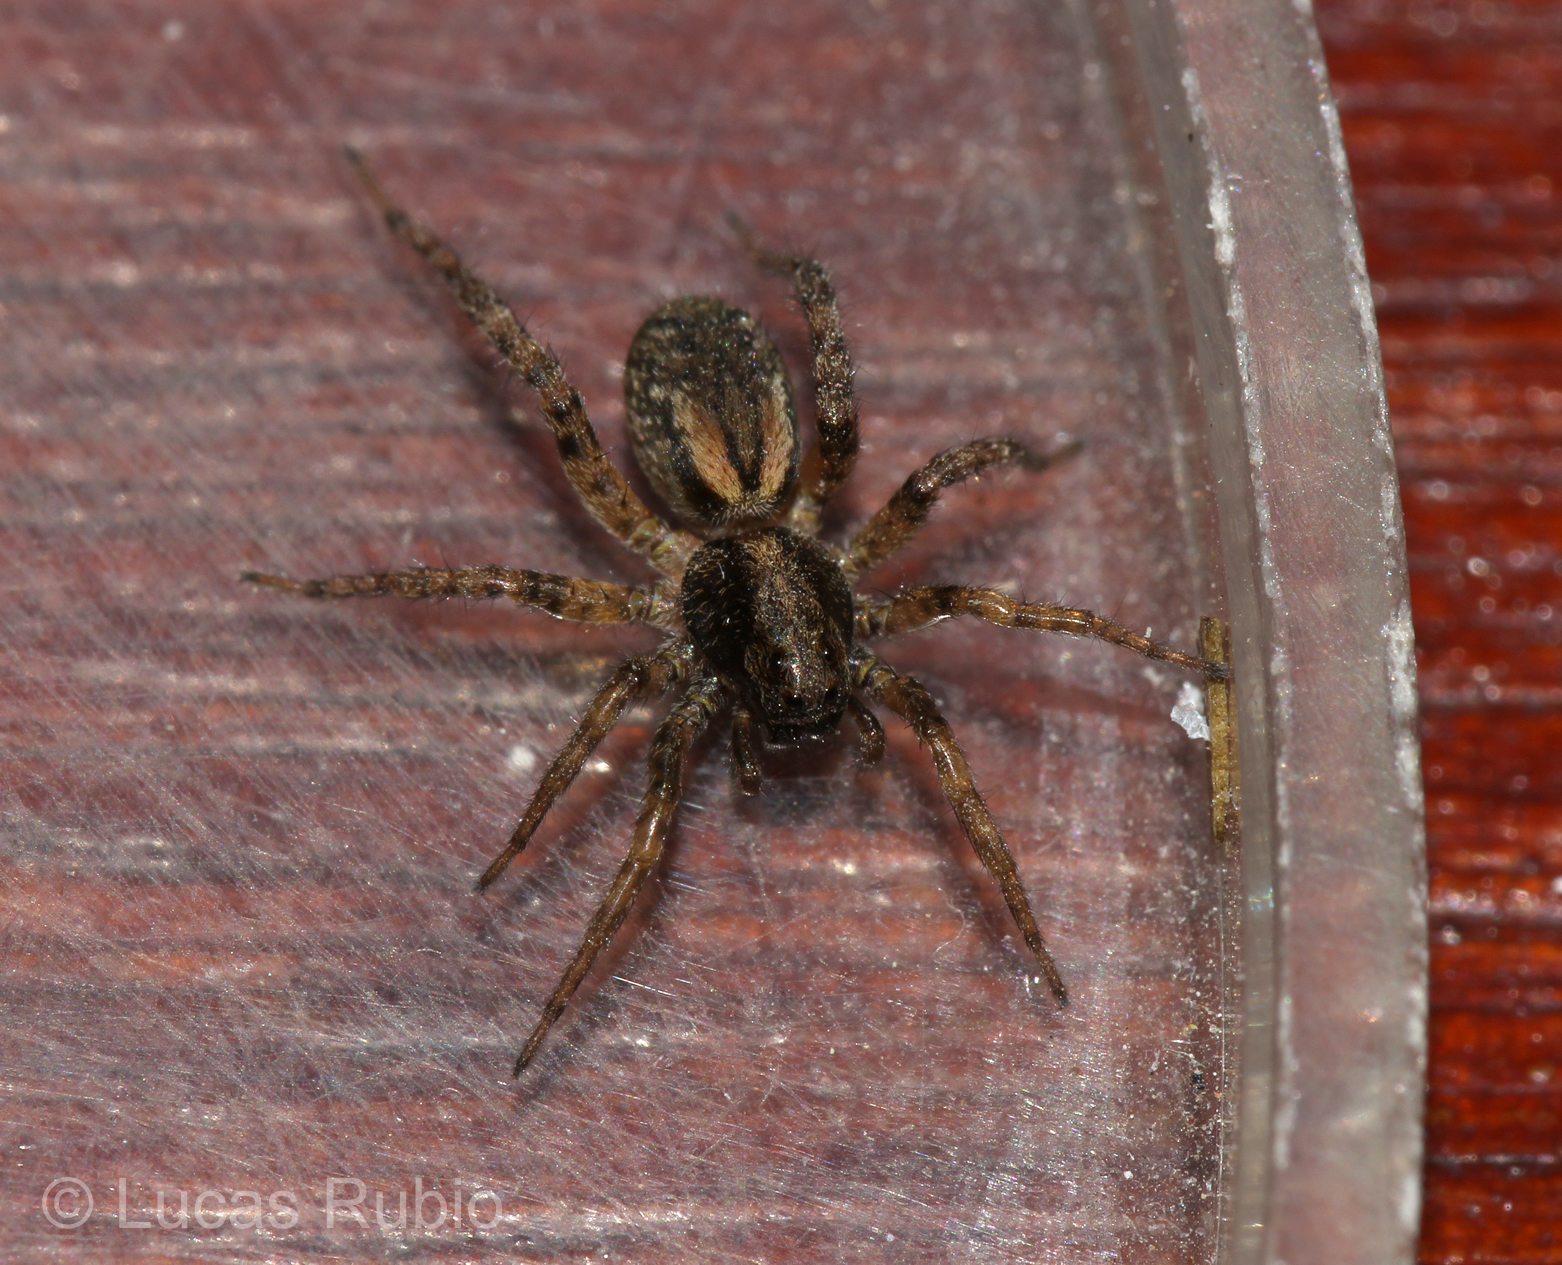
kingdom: Animalia
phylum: Arthropoda
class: Arachnida
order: Araneae
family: Lycosidae
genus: Abaycosa
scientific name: Abaycosa nanica
